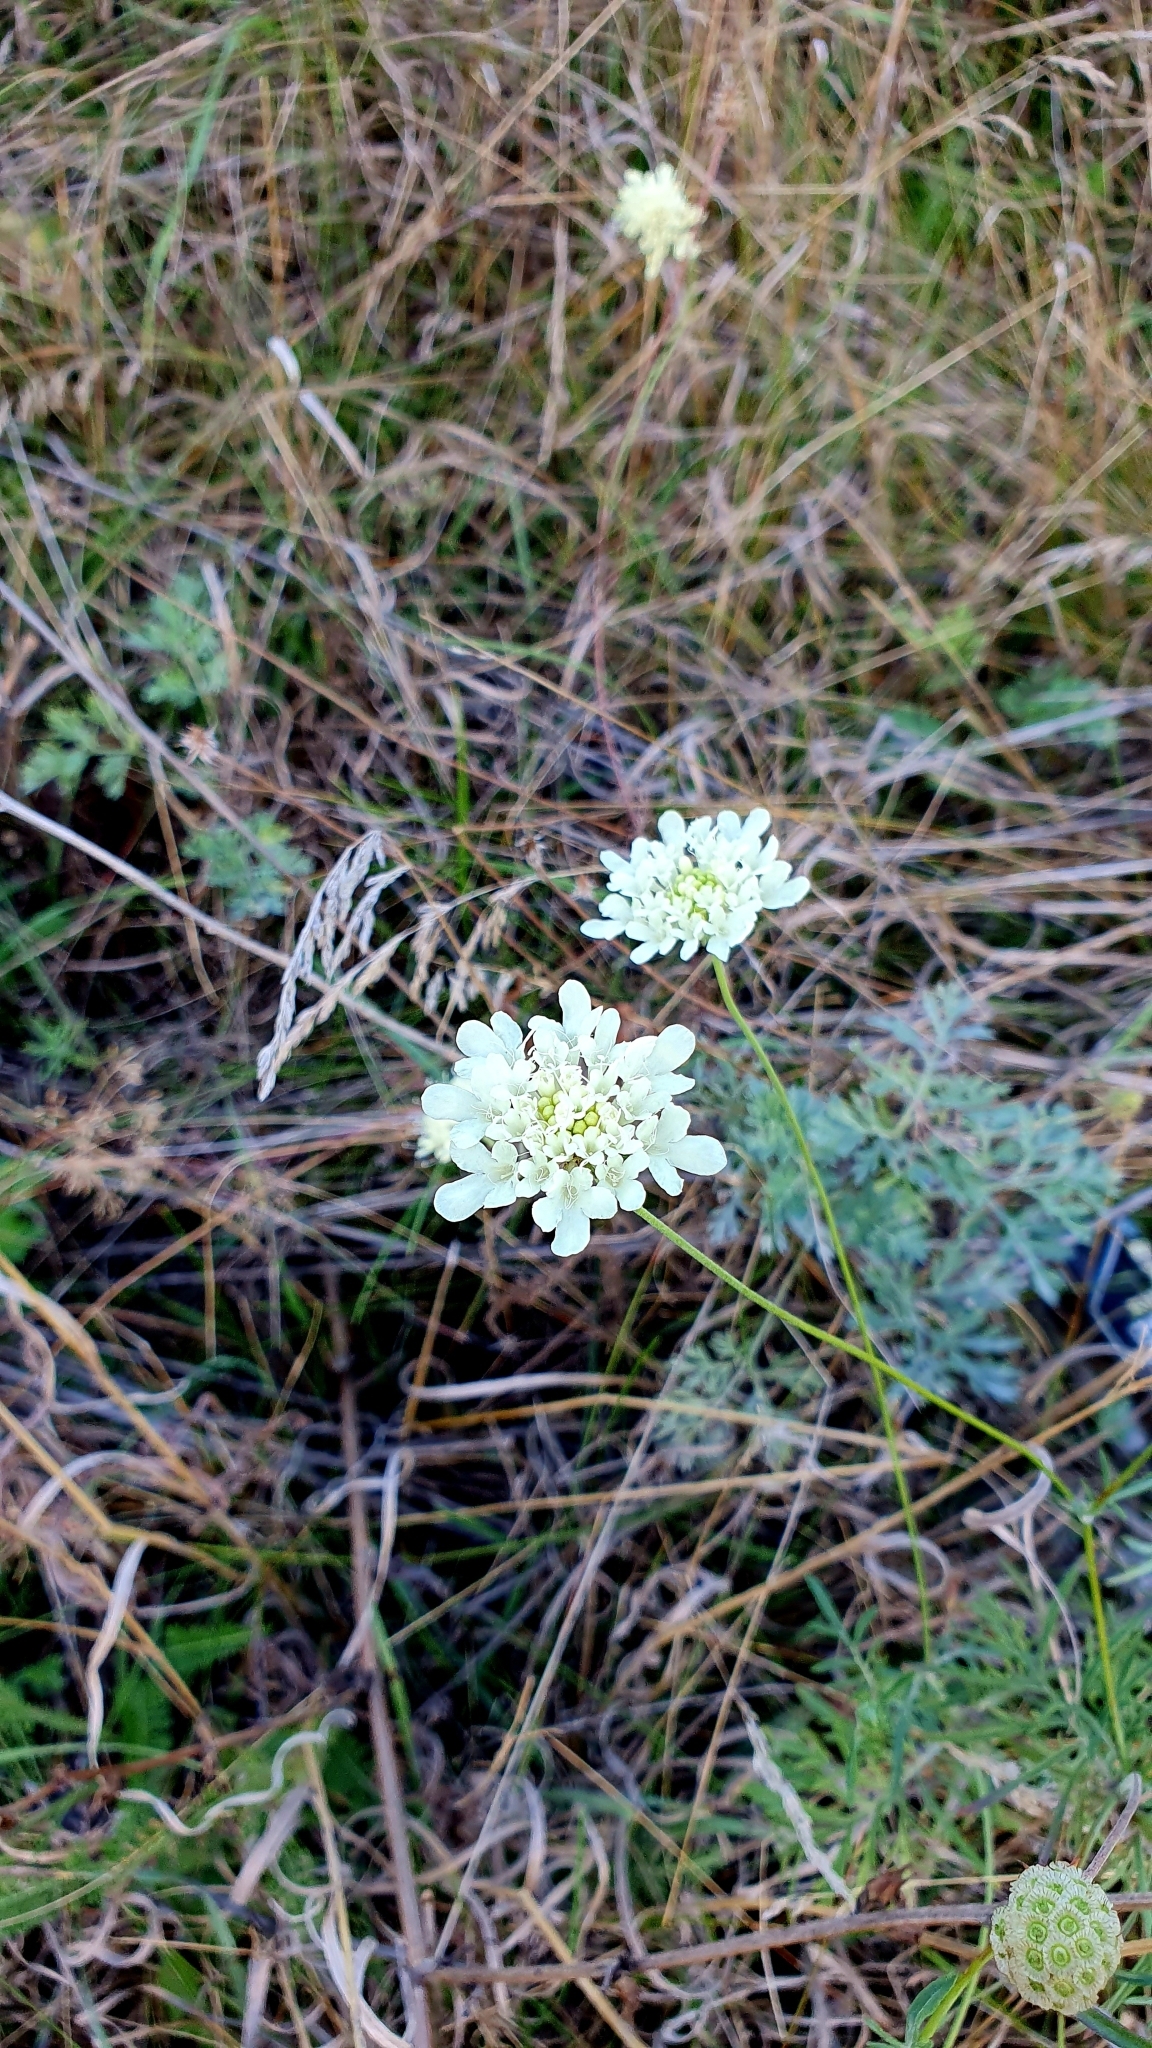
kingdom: Plantae
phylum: Tracheophyta
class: Magnoliopsida
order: Dipsacales
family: Caprifoliaceae
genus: Scabiosa
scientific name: Scabiosa ochroleuca
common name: Cream pincushions
